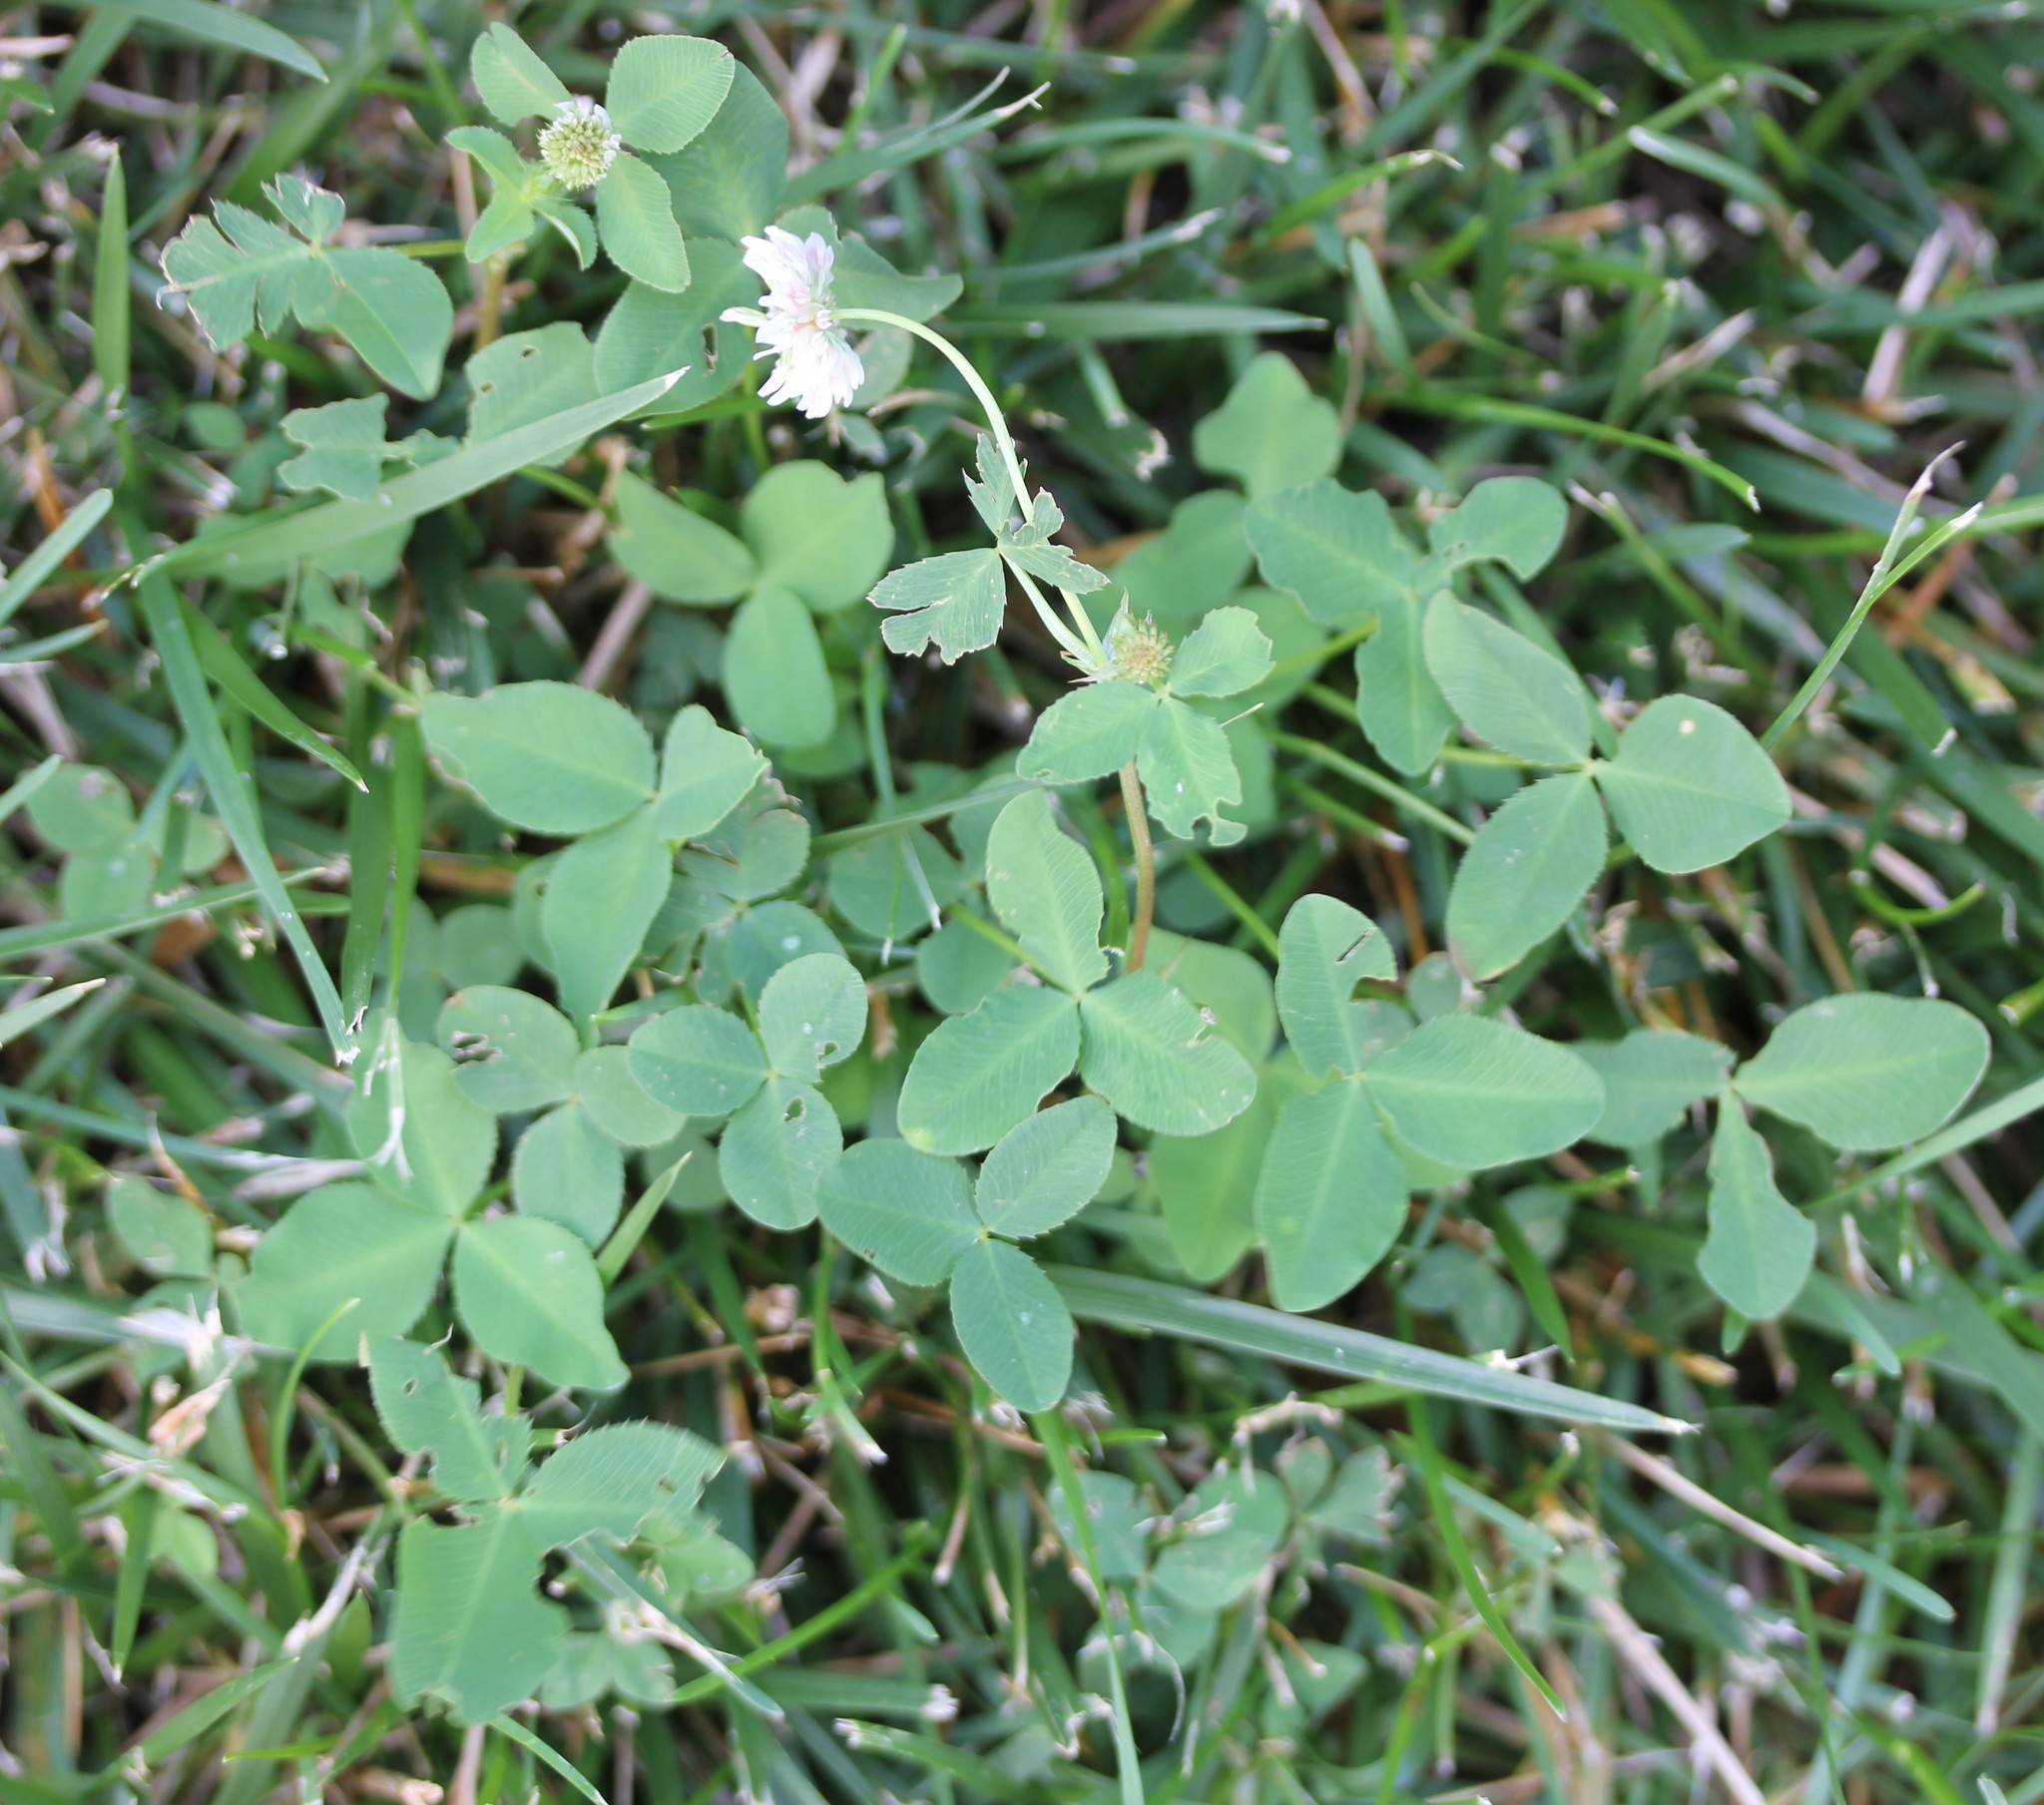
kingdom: Plantae
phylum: Tracheophyta
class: Magnoliopsida
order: Fabales
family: Fabaceae
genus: Trifolium
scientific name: Trifolium hybridum
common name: Alsike clover
